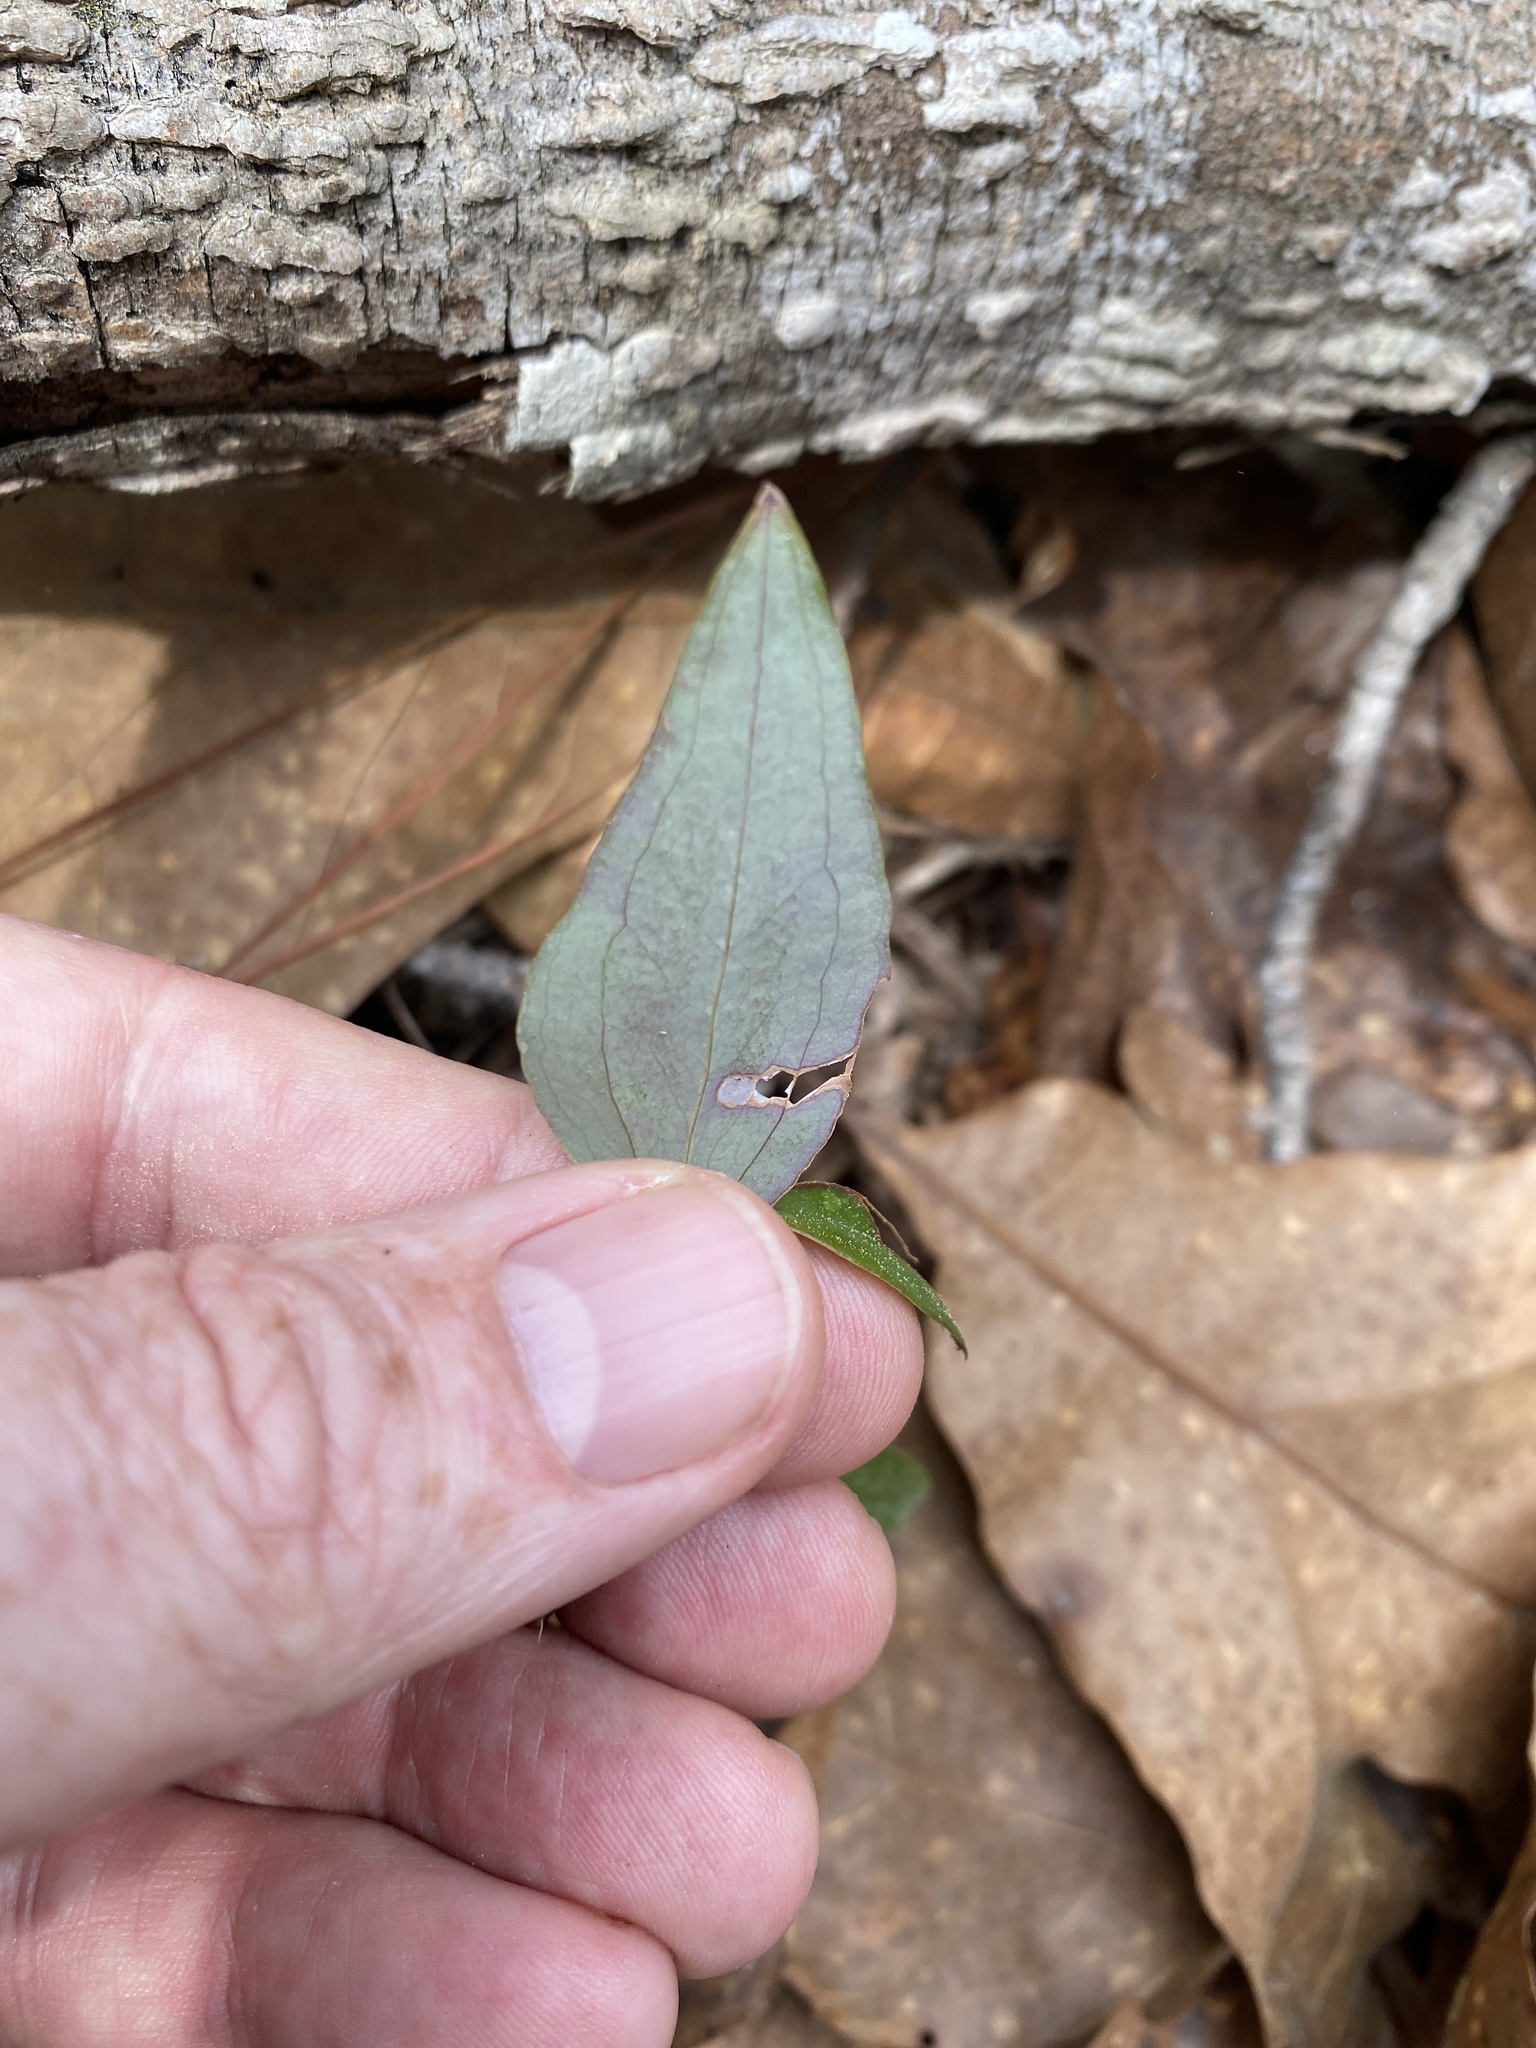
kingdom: Plantae
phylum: Tracheophyta
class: Liliopsida
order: Liliales
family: Smilacaceae
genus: Smilax
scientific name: Smilax glauca
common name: Cat greenbrier
